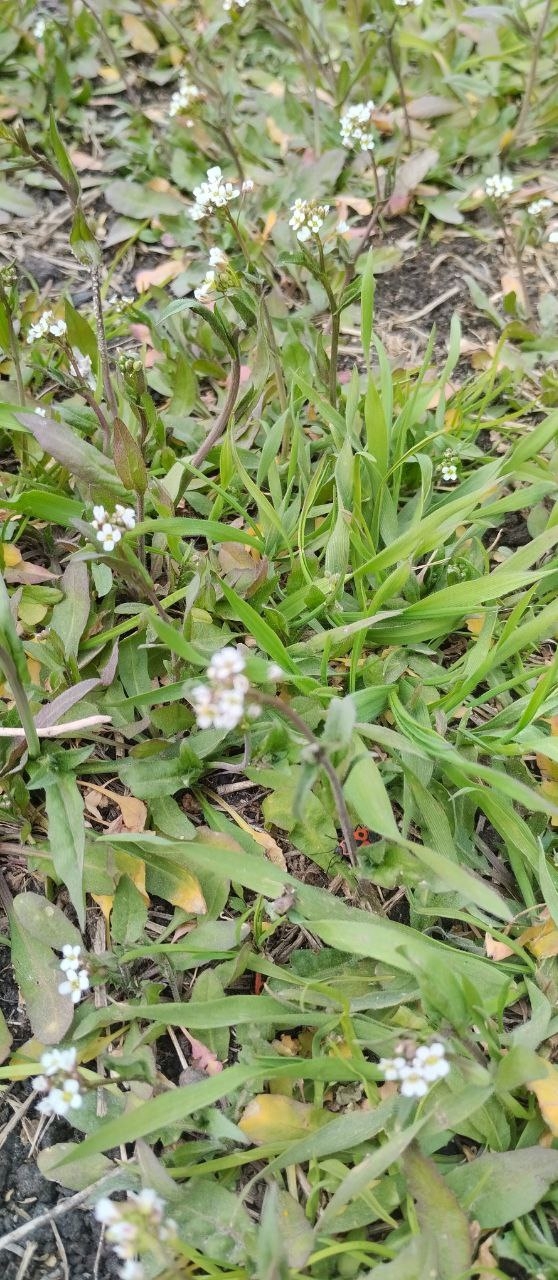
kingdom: Plantae
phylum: Tracheophyta
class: Magnoliopsida
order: Brassicales
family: Brassicaceae
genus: Capsella
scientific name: Capsella bursa-pastoris
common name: Shepherd's purse
